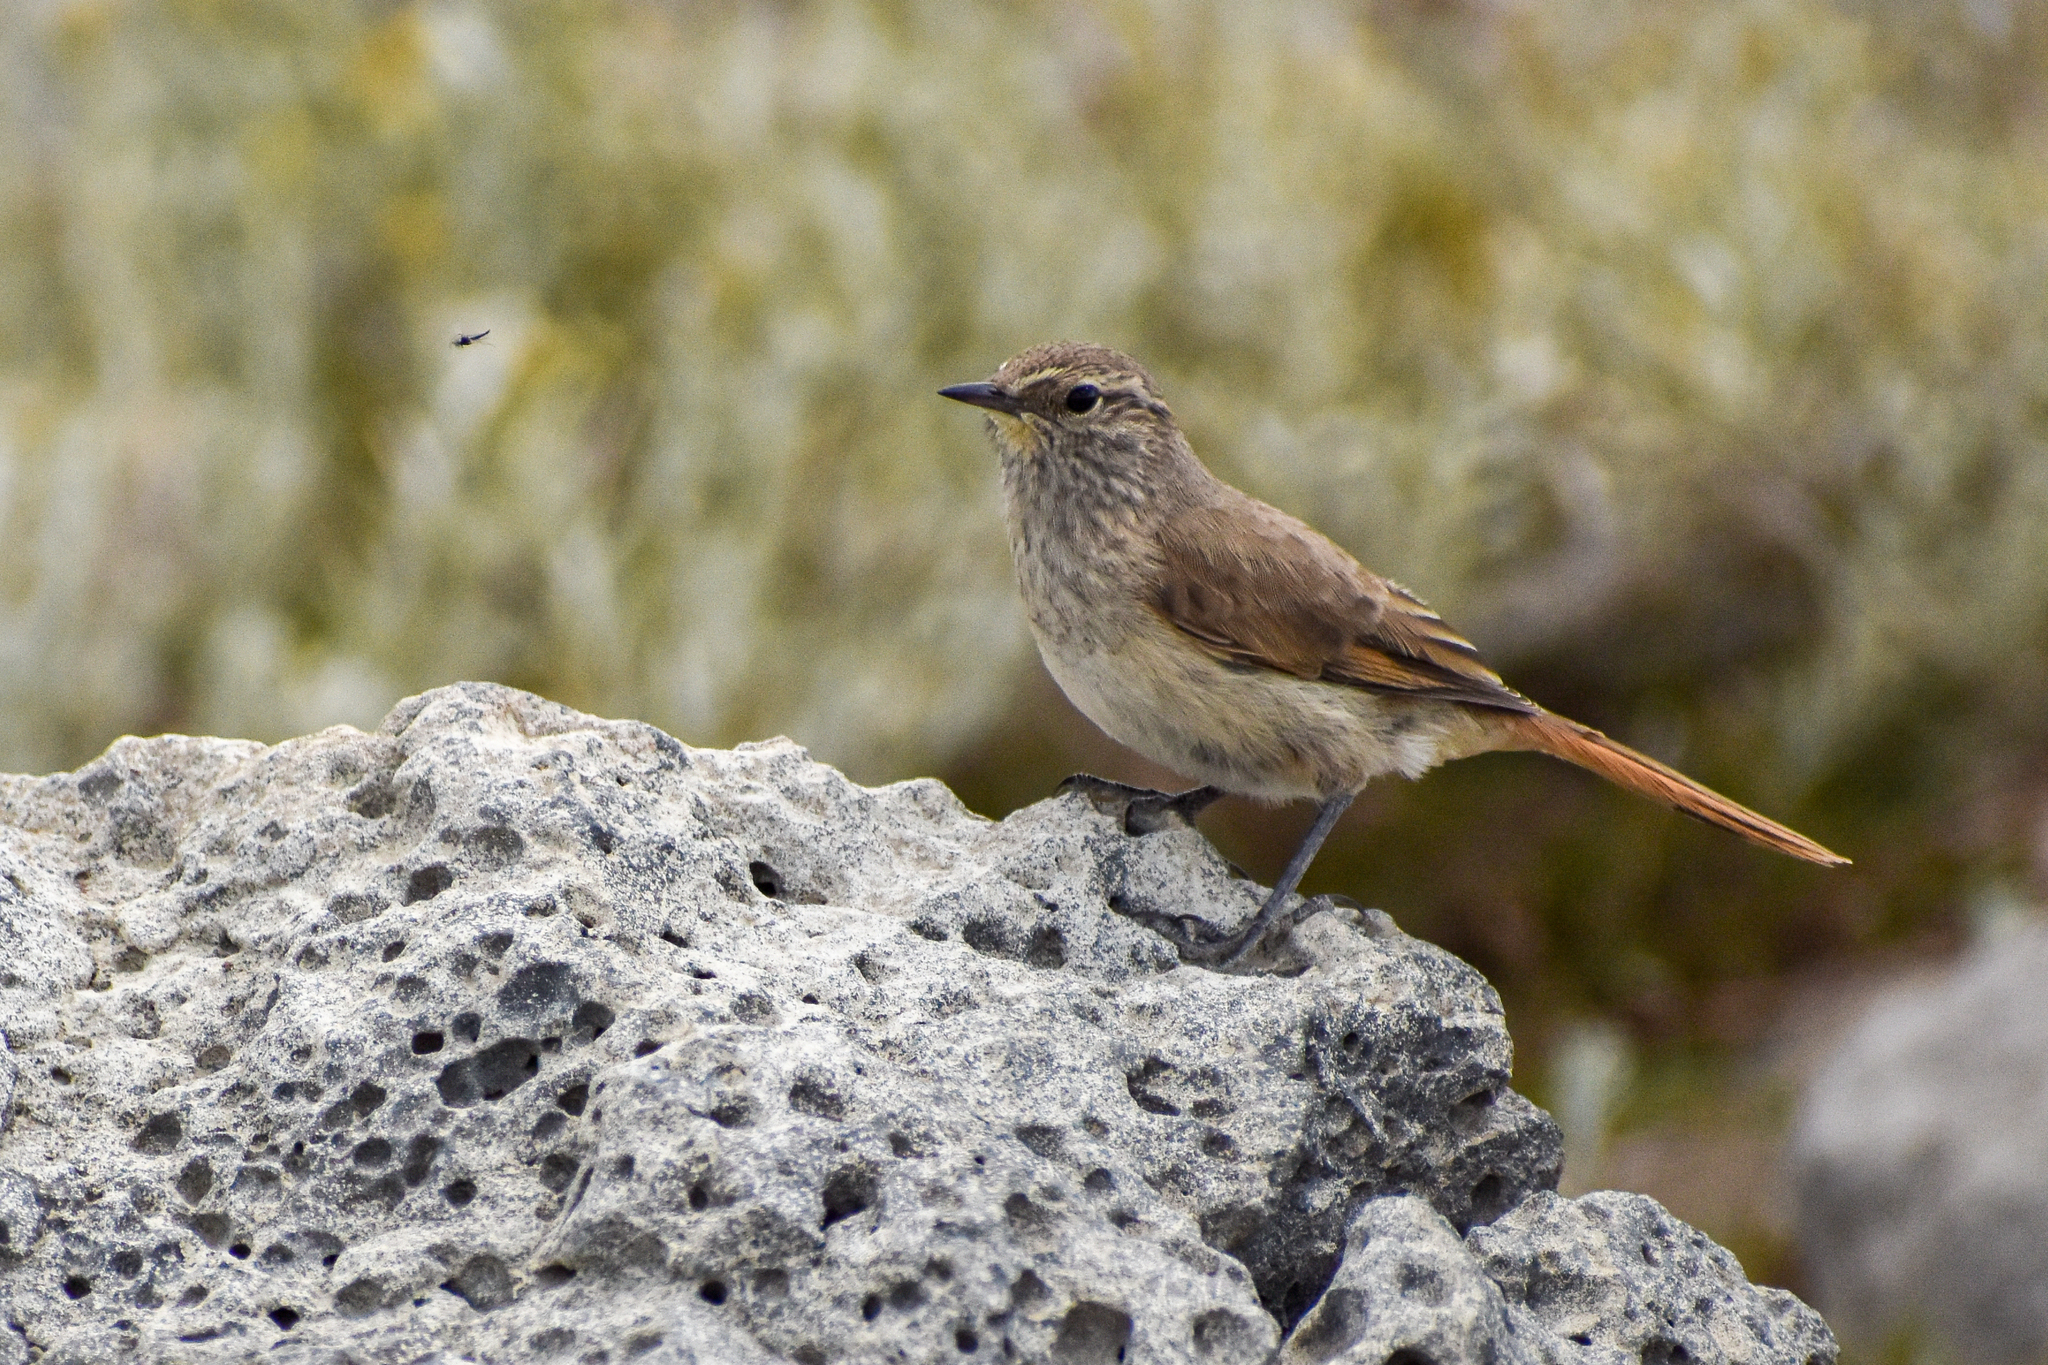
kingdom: Animalia
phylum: Chordata
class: Aves
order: Passeriformes
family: Furnariidae
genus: Asthenes
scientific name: Asthenes modesta
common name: Cordilleran canastero
